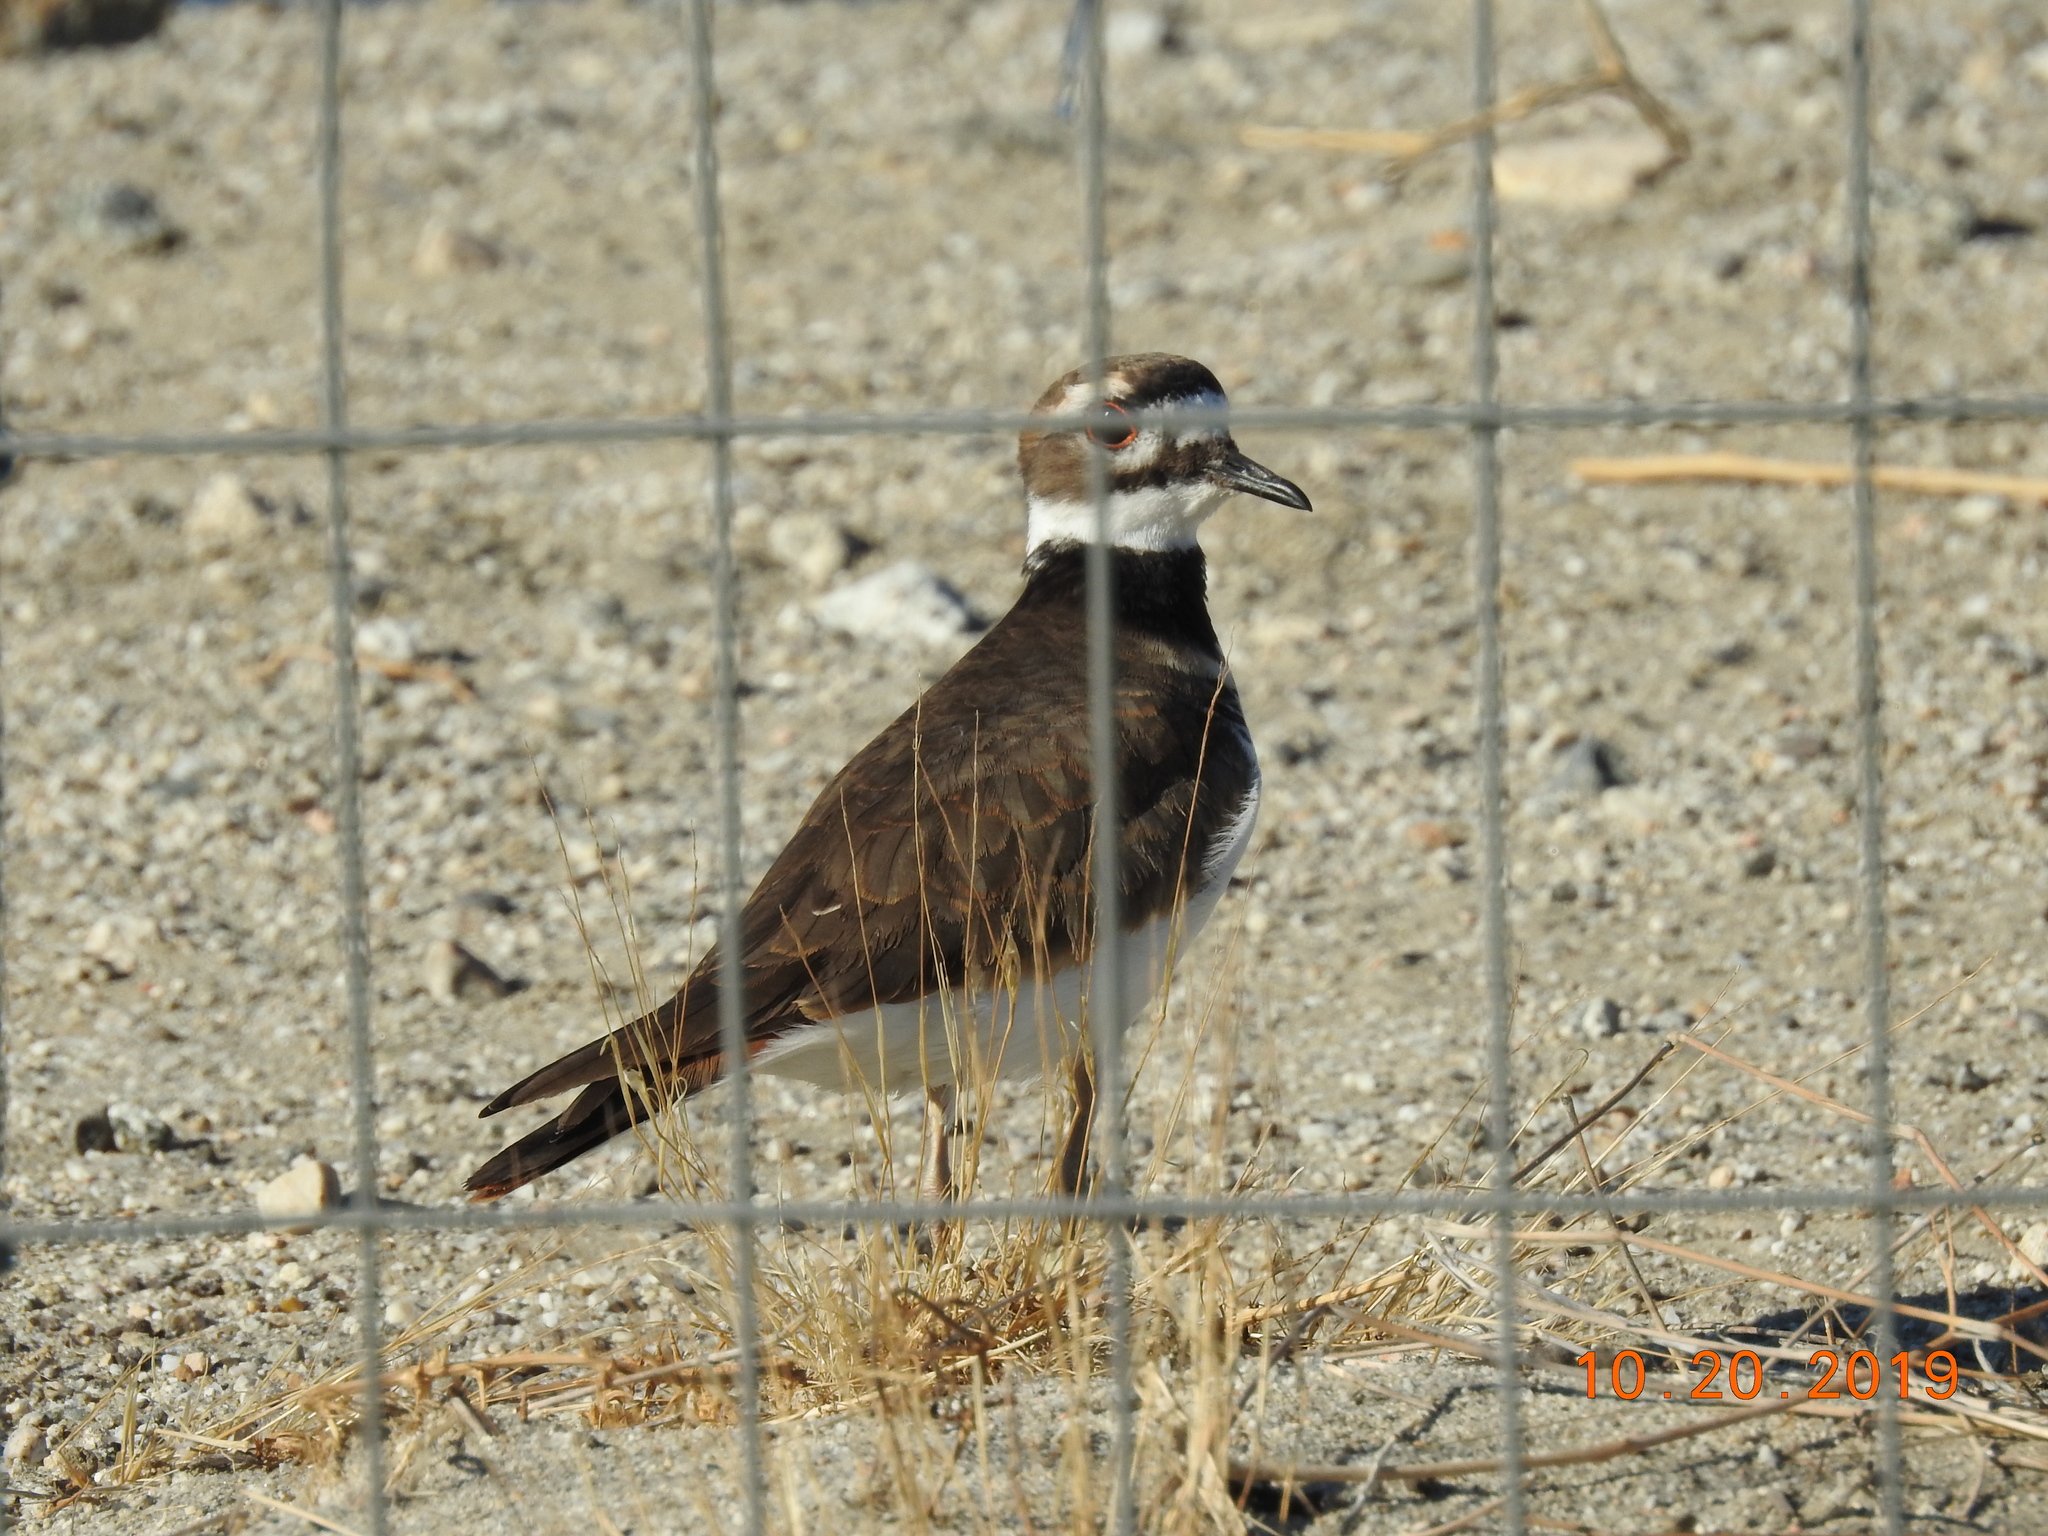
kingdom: Animalia
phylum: Chordata
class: Aves
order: Charadriiformes
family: Charadriidae
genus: Charadrius
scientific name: Charadrius vociferus
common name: Killdeer
